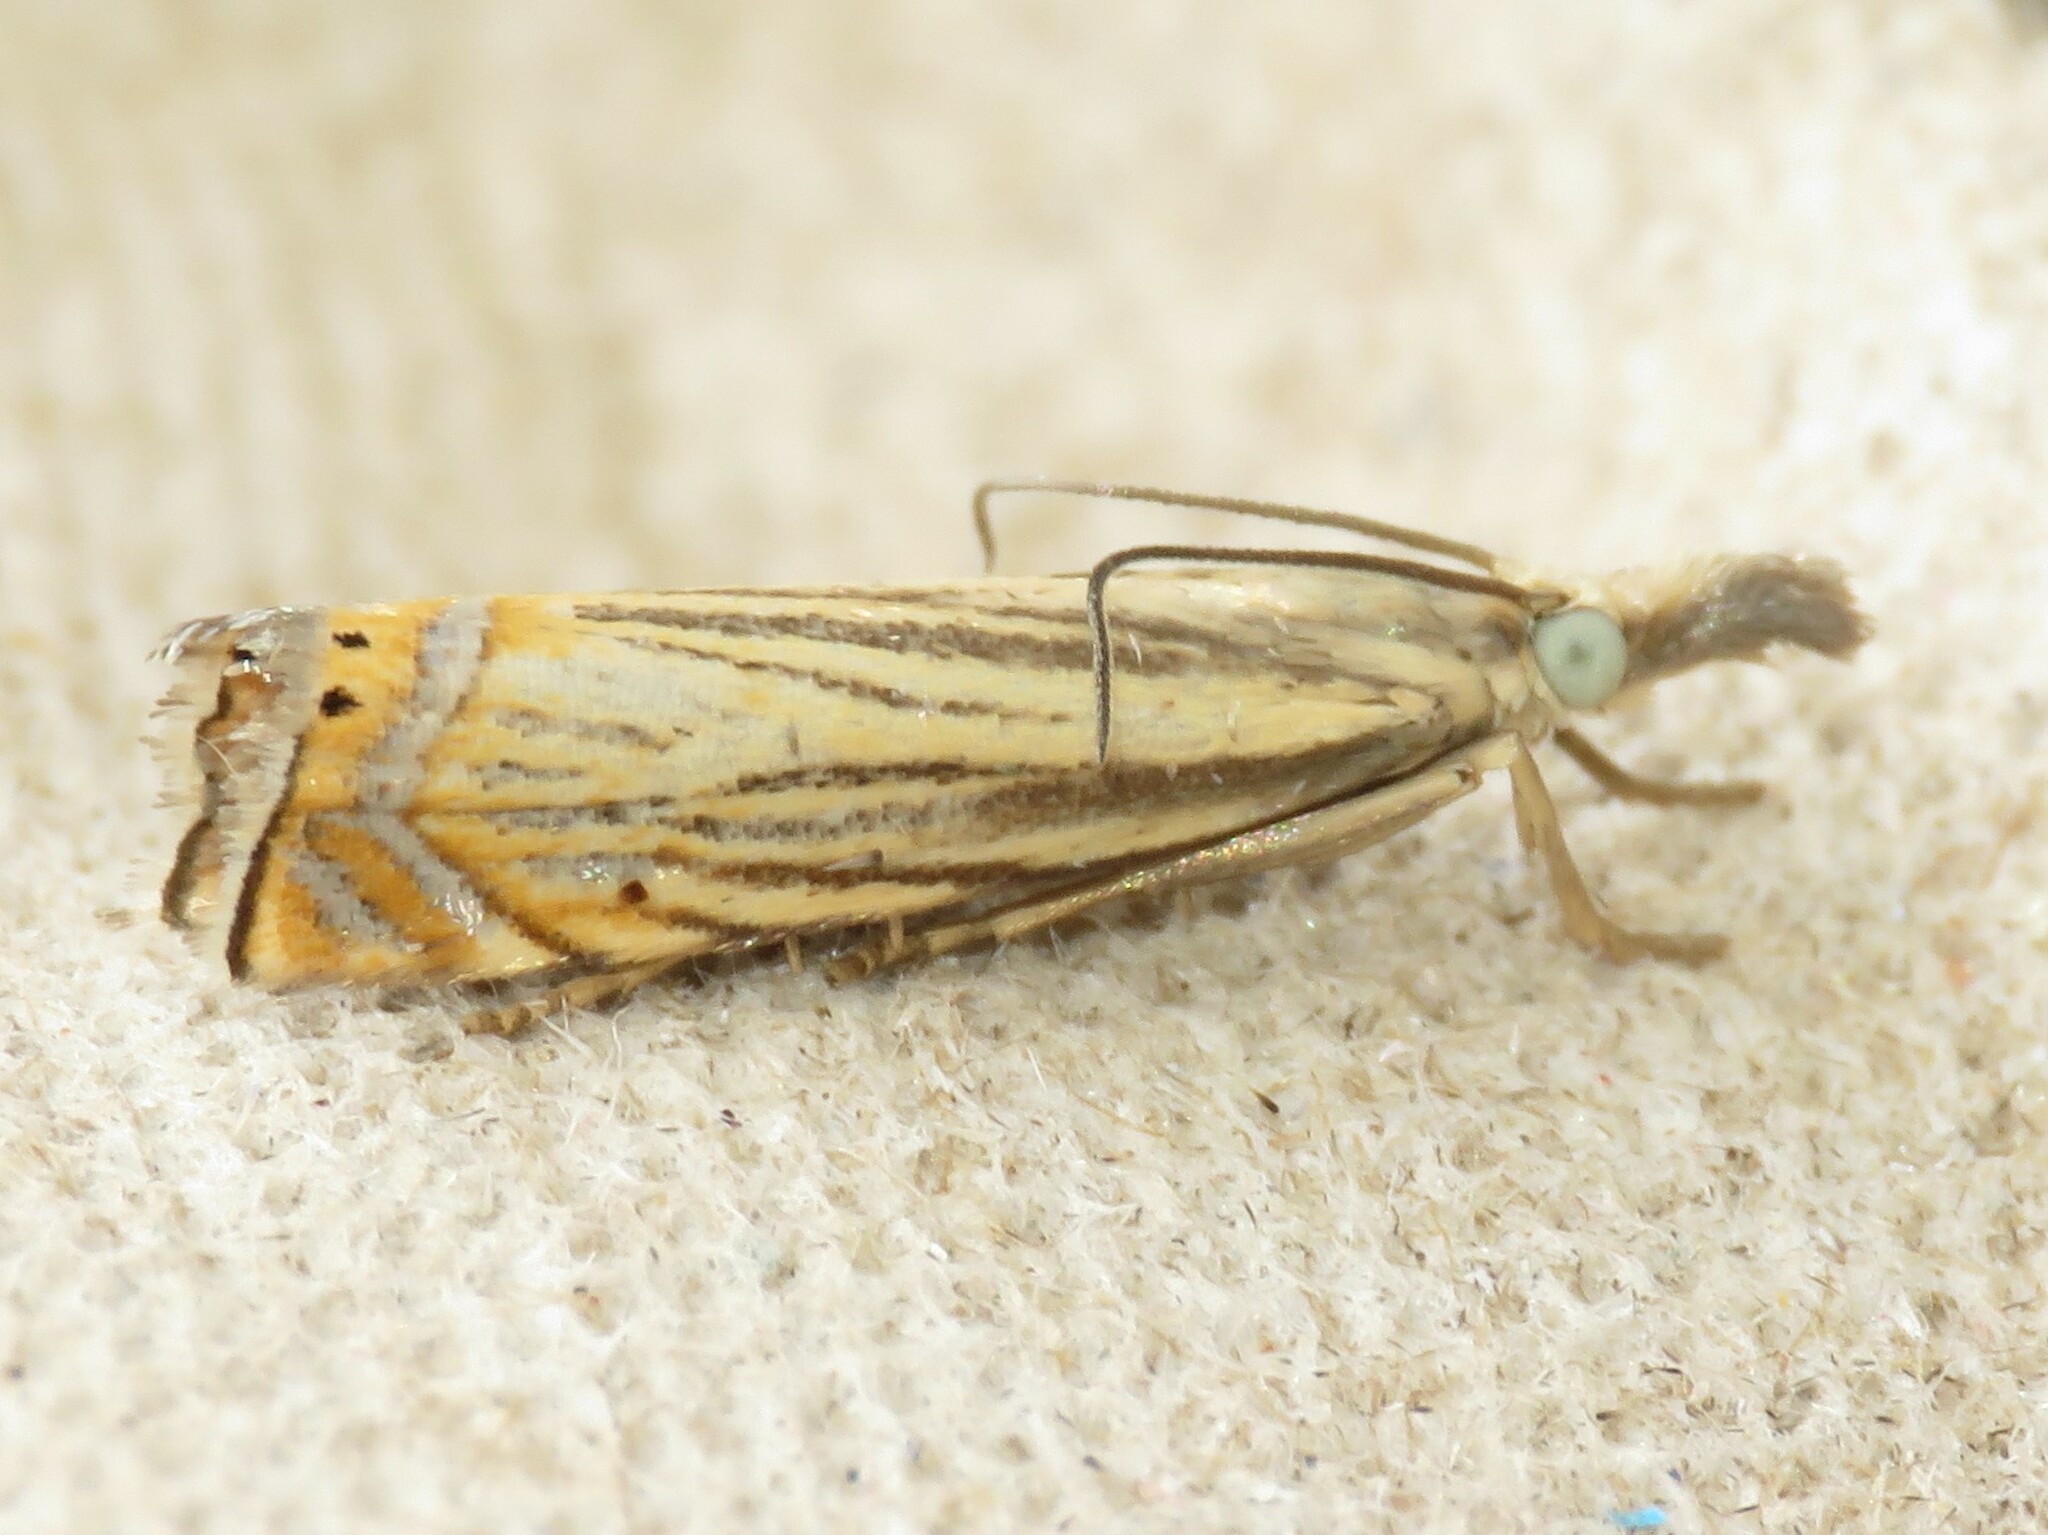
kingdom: Animalia
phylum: Arthropoda
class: Insecta
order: Lepidoptera
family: Crambidae
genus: Chrysoteuchia
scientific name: Chrysoteuchia topiarius
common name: Topiary grass-veneer
